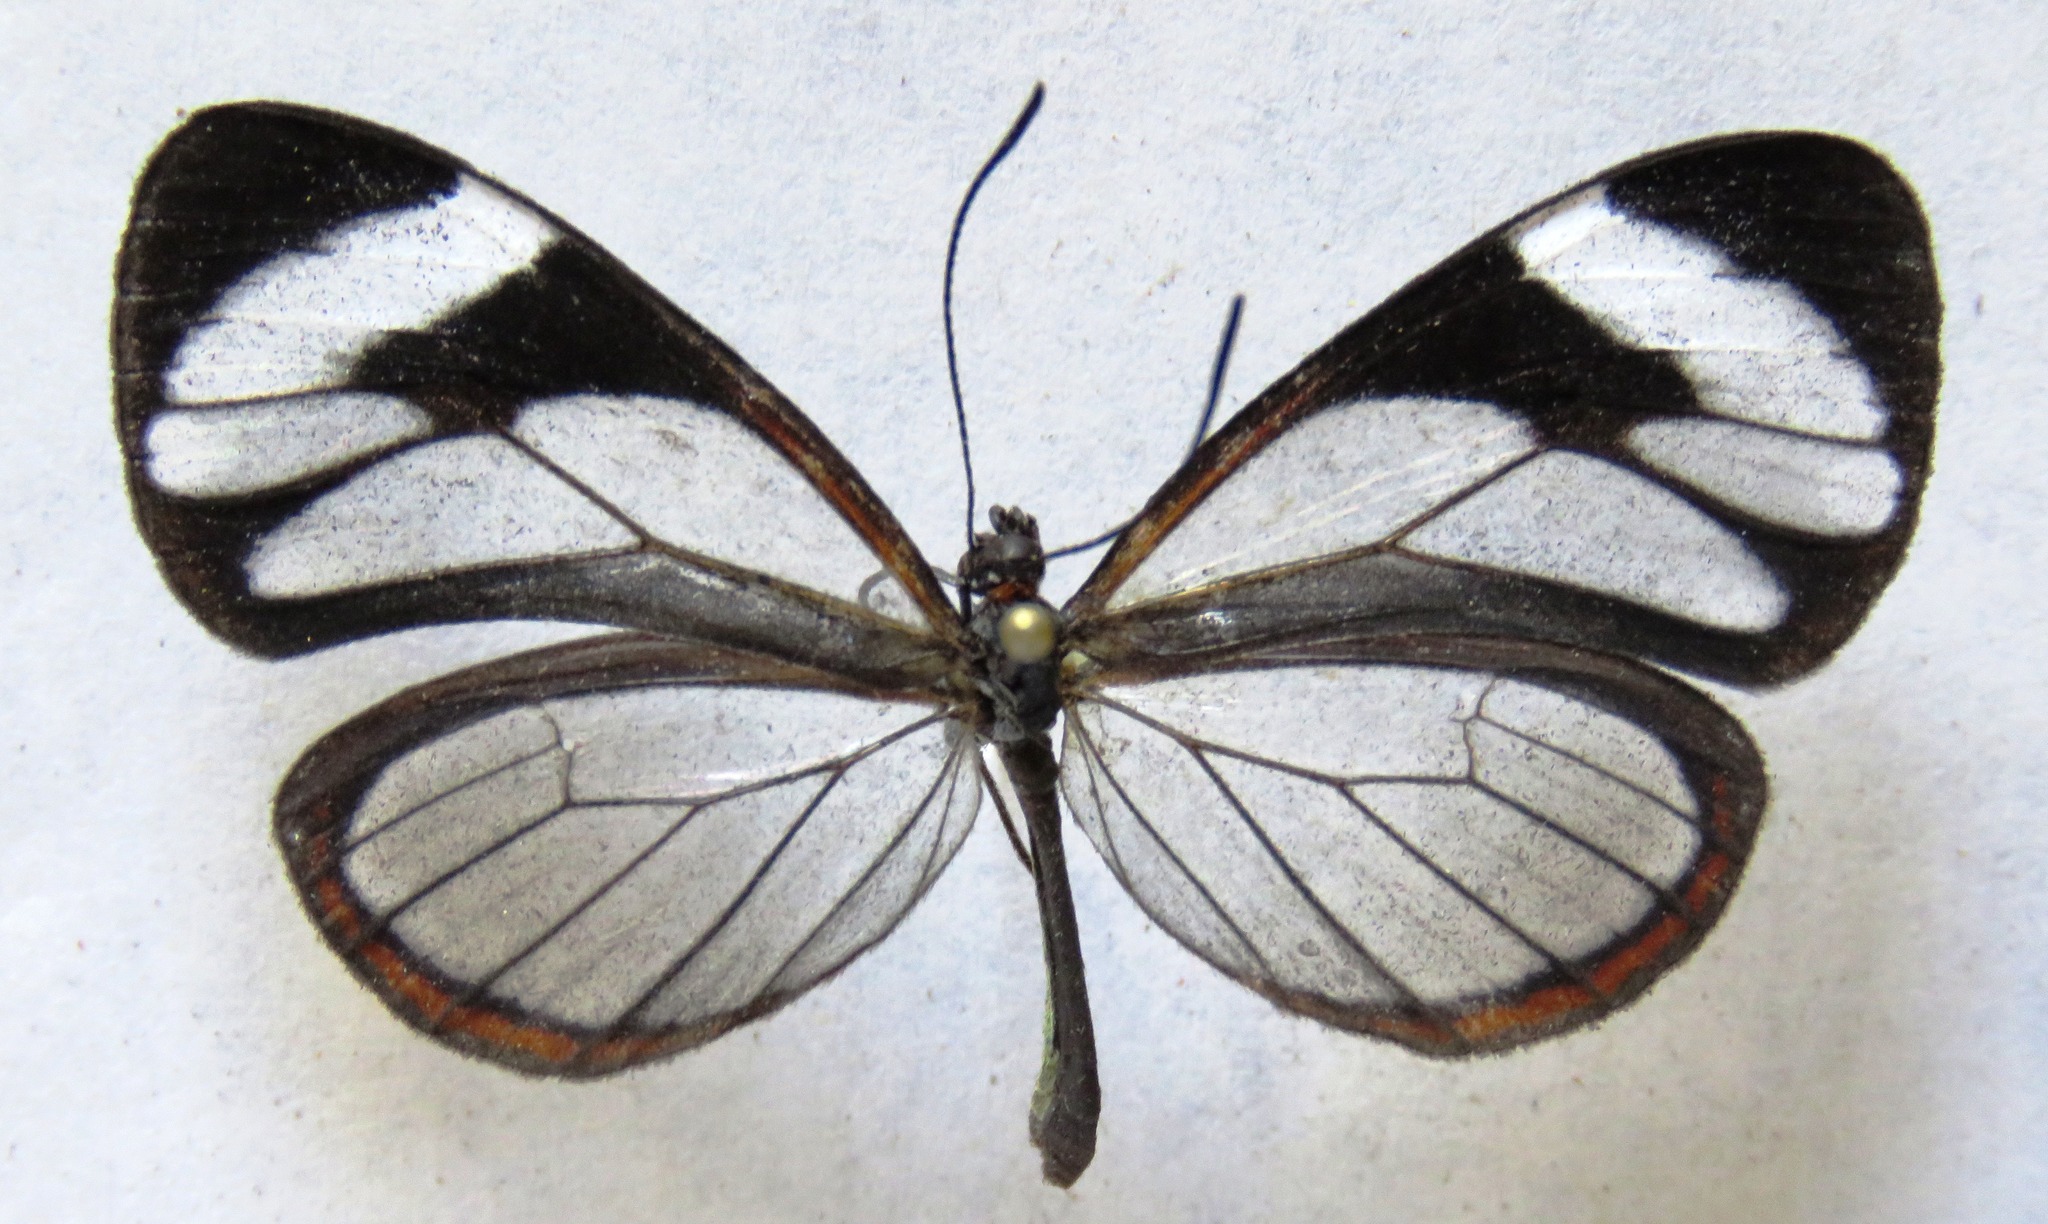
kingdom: Animalia
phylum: Arthropoda
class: Insecta
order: Lepidoptera
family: Nymphalidae
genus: Ithomia
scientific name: Ithomia patilla
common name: Patilla clearwing
